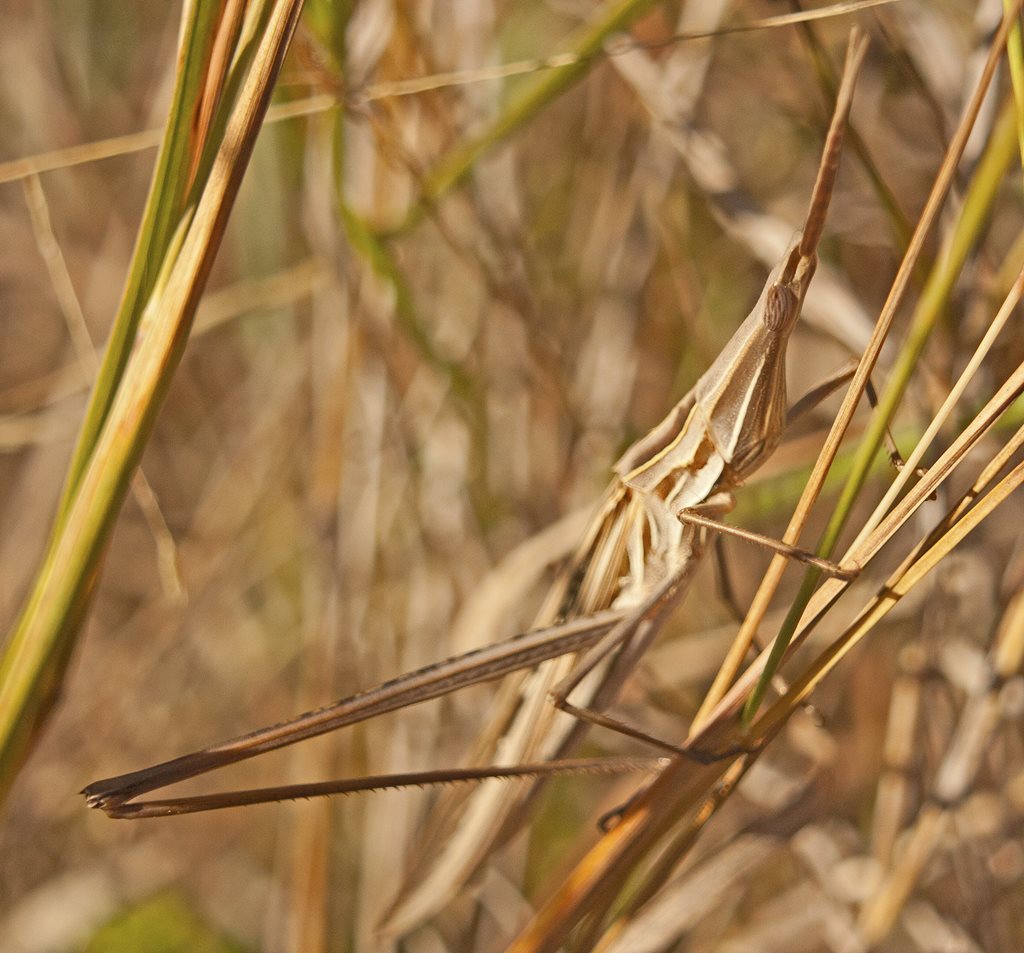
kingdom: Animalia
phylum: Arthropoda
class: Insecta
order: Orthoptera
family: Acrididae
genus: Acrida
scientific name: Acrida conica
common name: Giant green slantface
